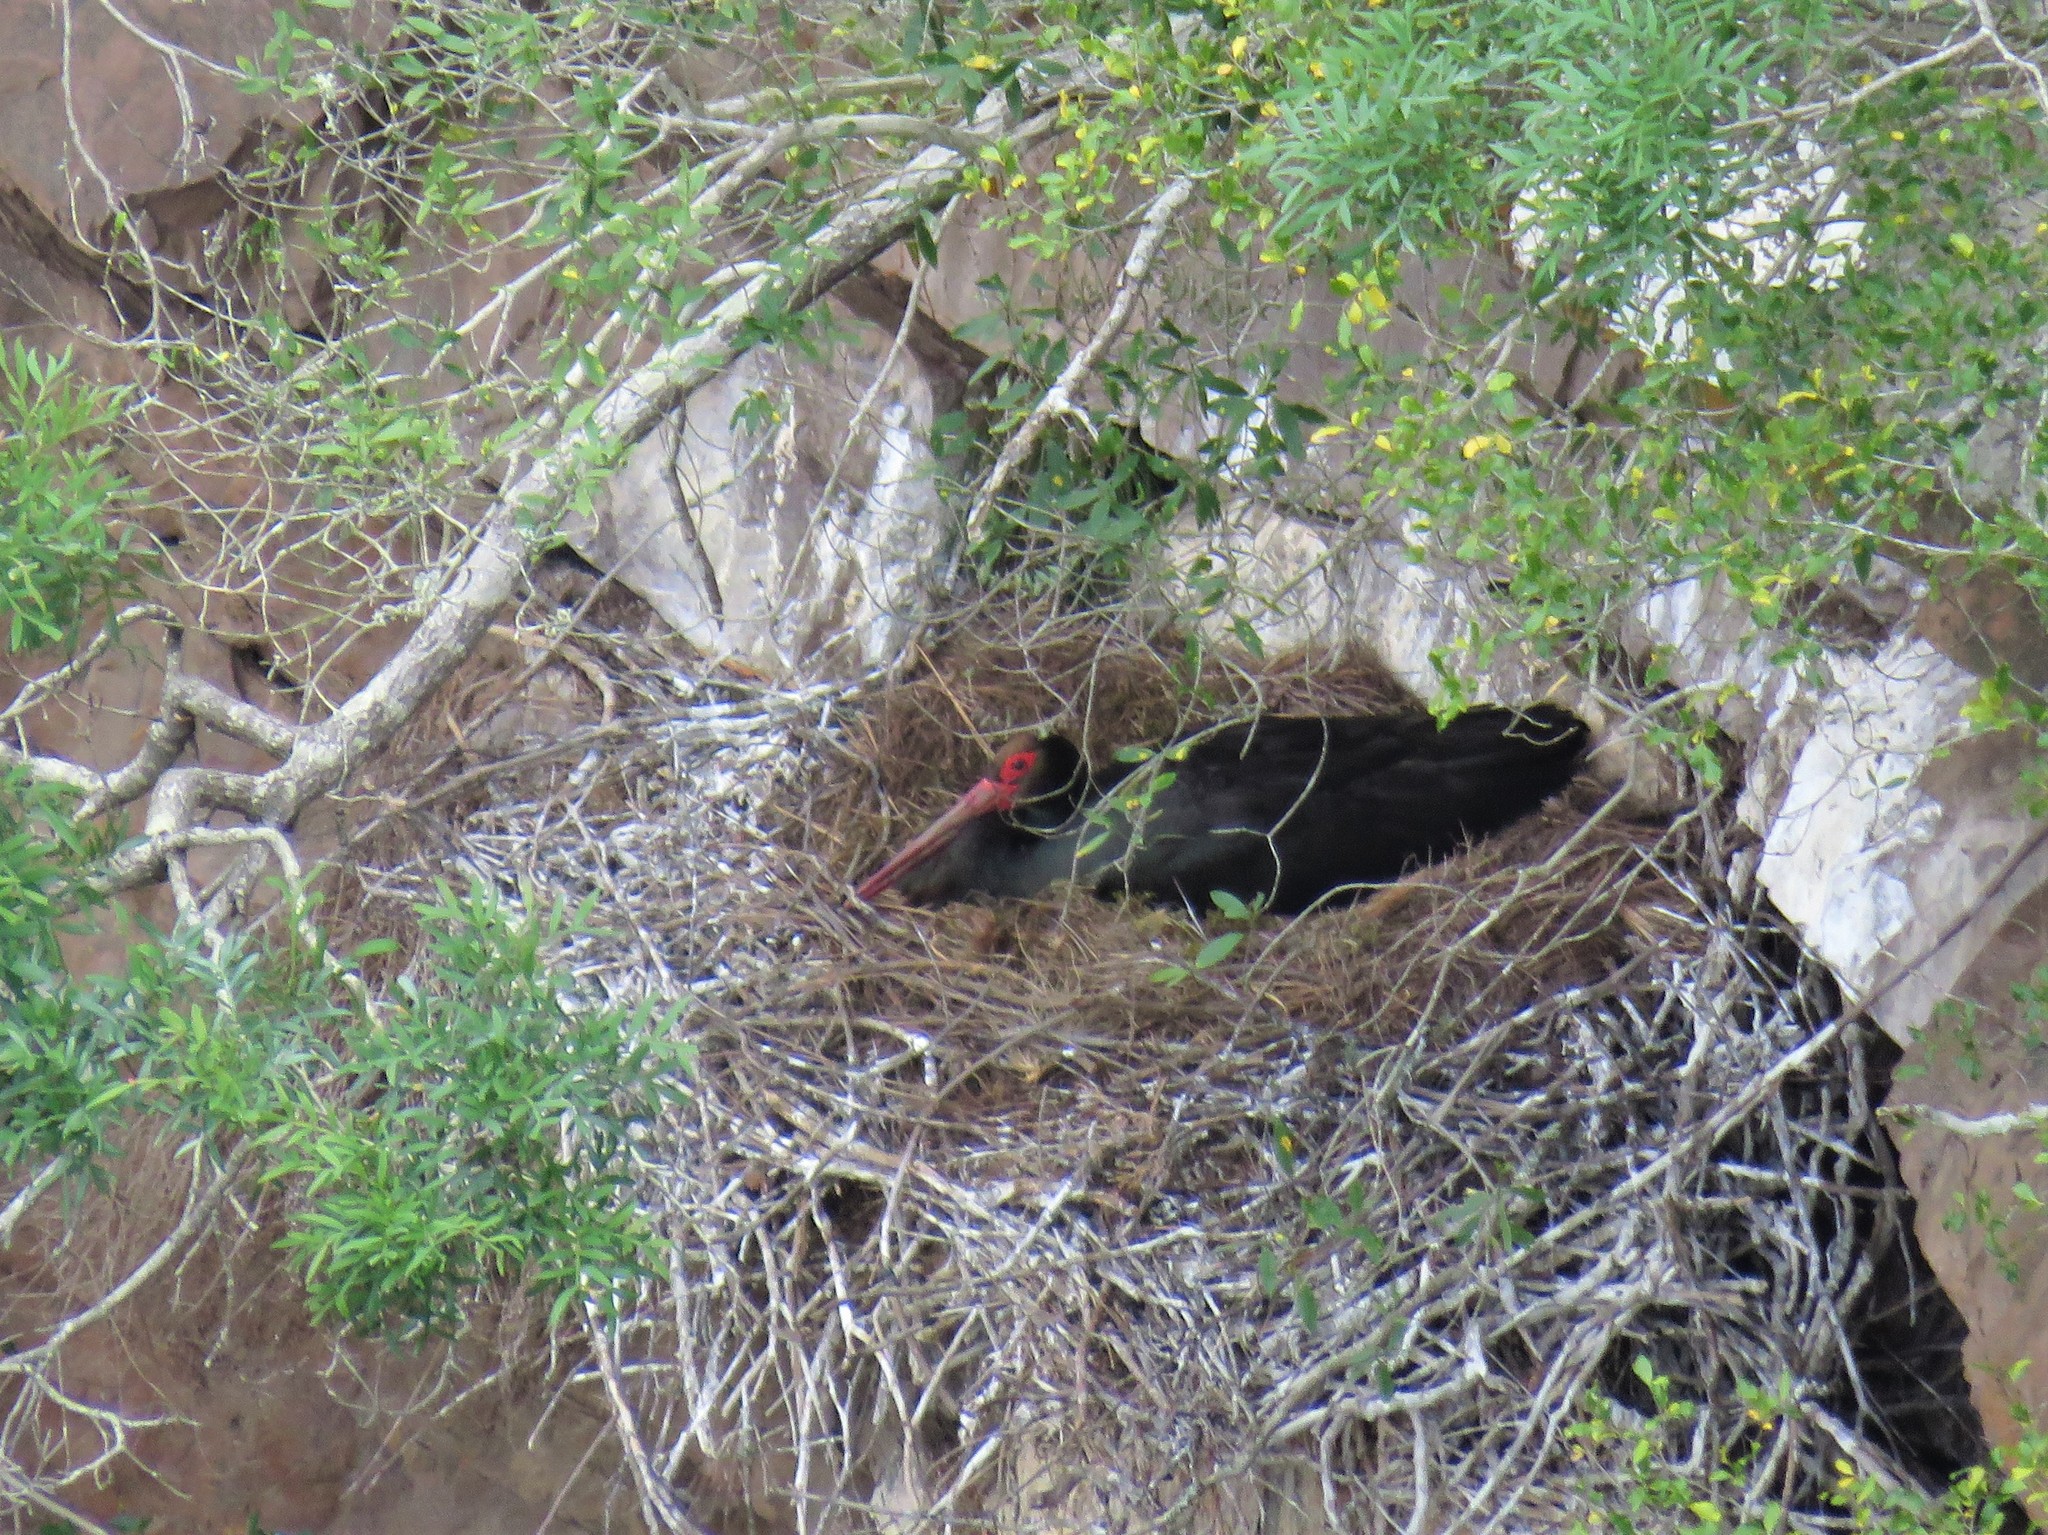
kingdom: Animalia
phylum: Chordata
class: Aves
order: Ciconiiformes
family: Ciconiidae
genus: Ciconia
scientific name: Ciconia nigra
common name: Black stork
